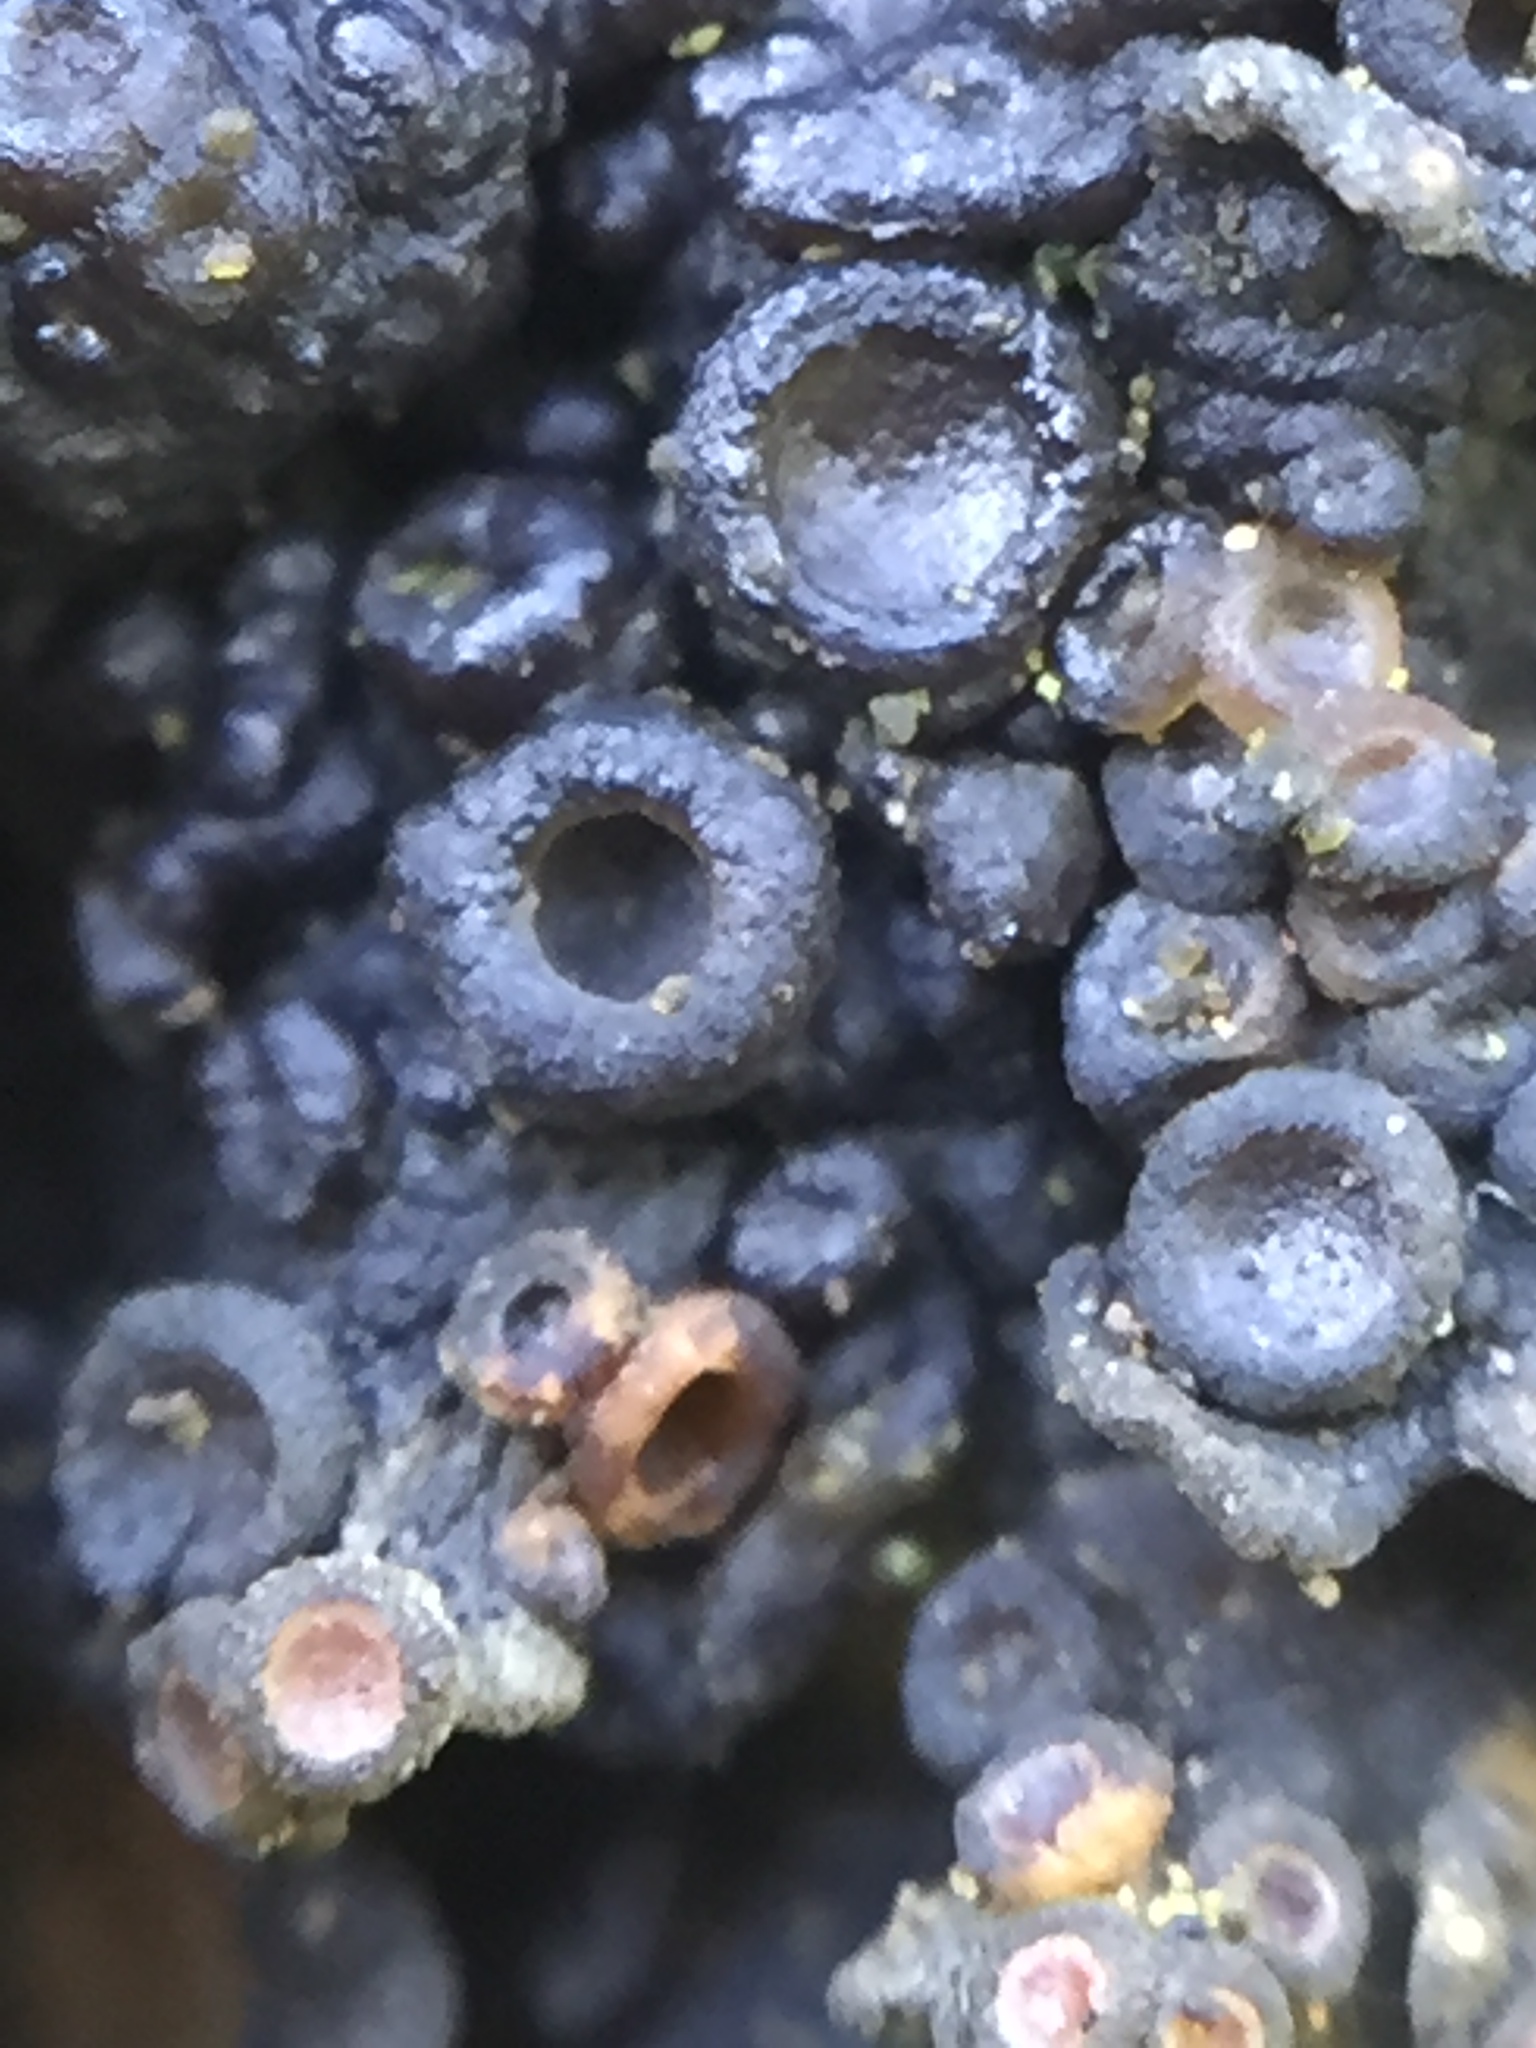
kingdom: Fungi
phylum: Ascomycota
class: Lecanoromycetes
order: Peltigerales
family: Pannariaceae
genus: Physma
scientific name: Physma byrsaeum
